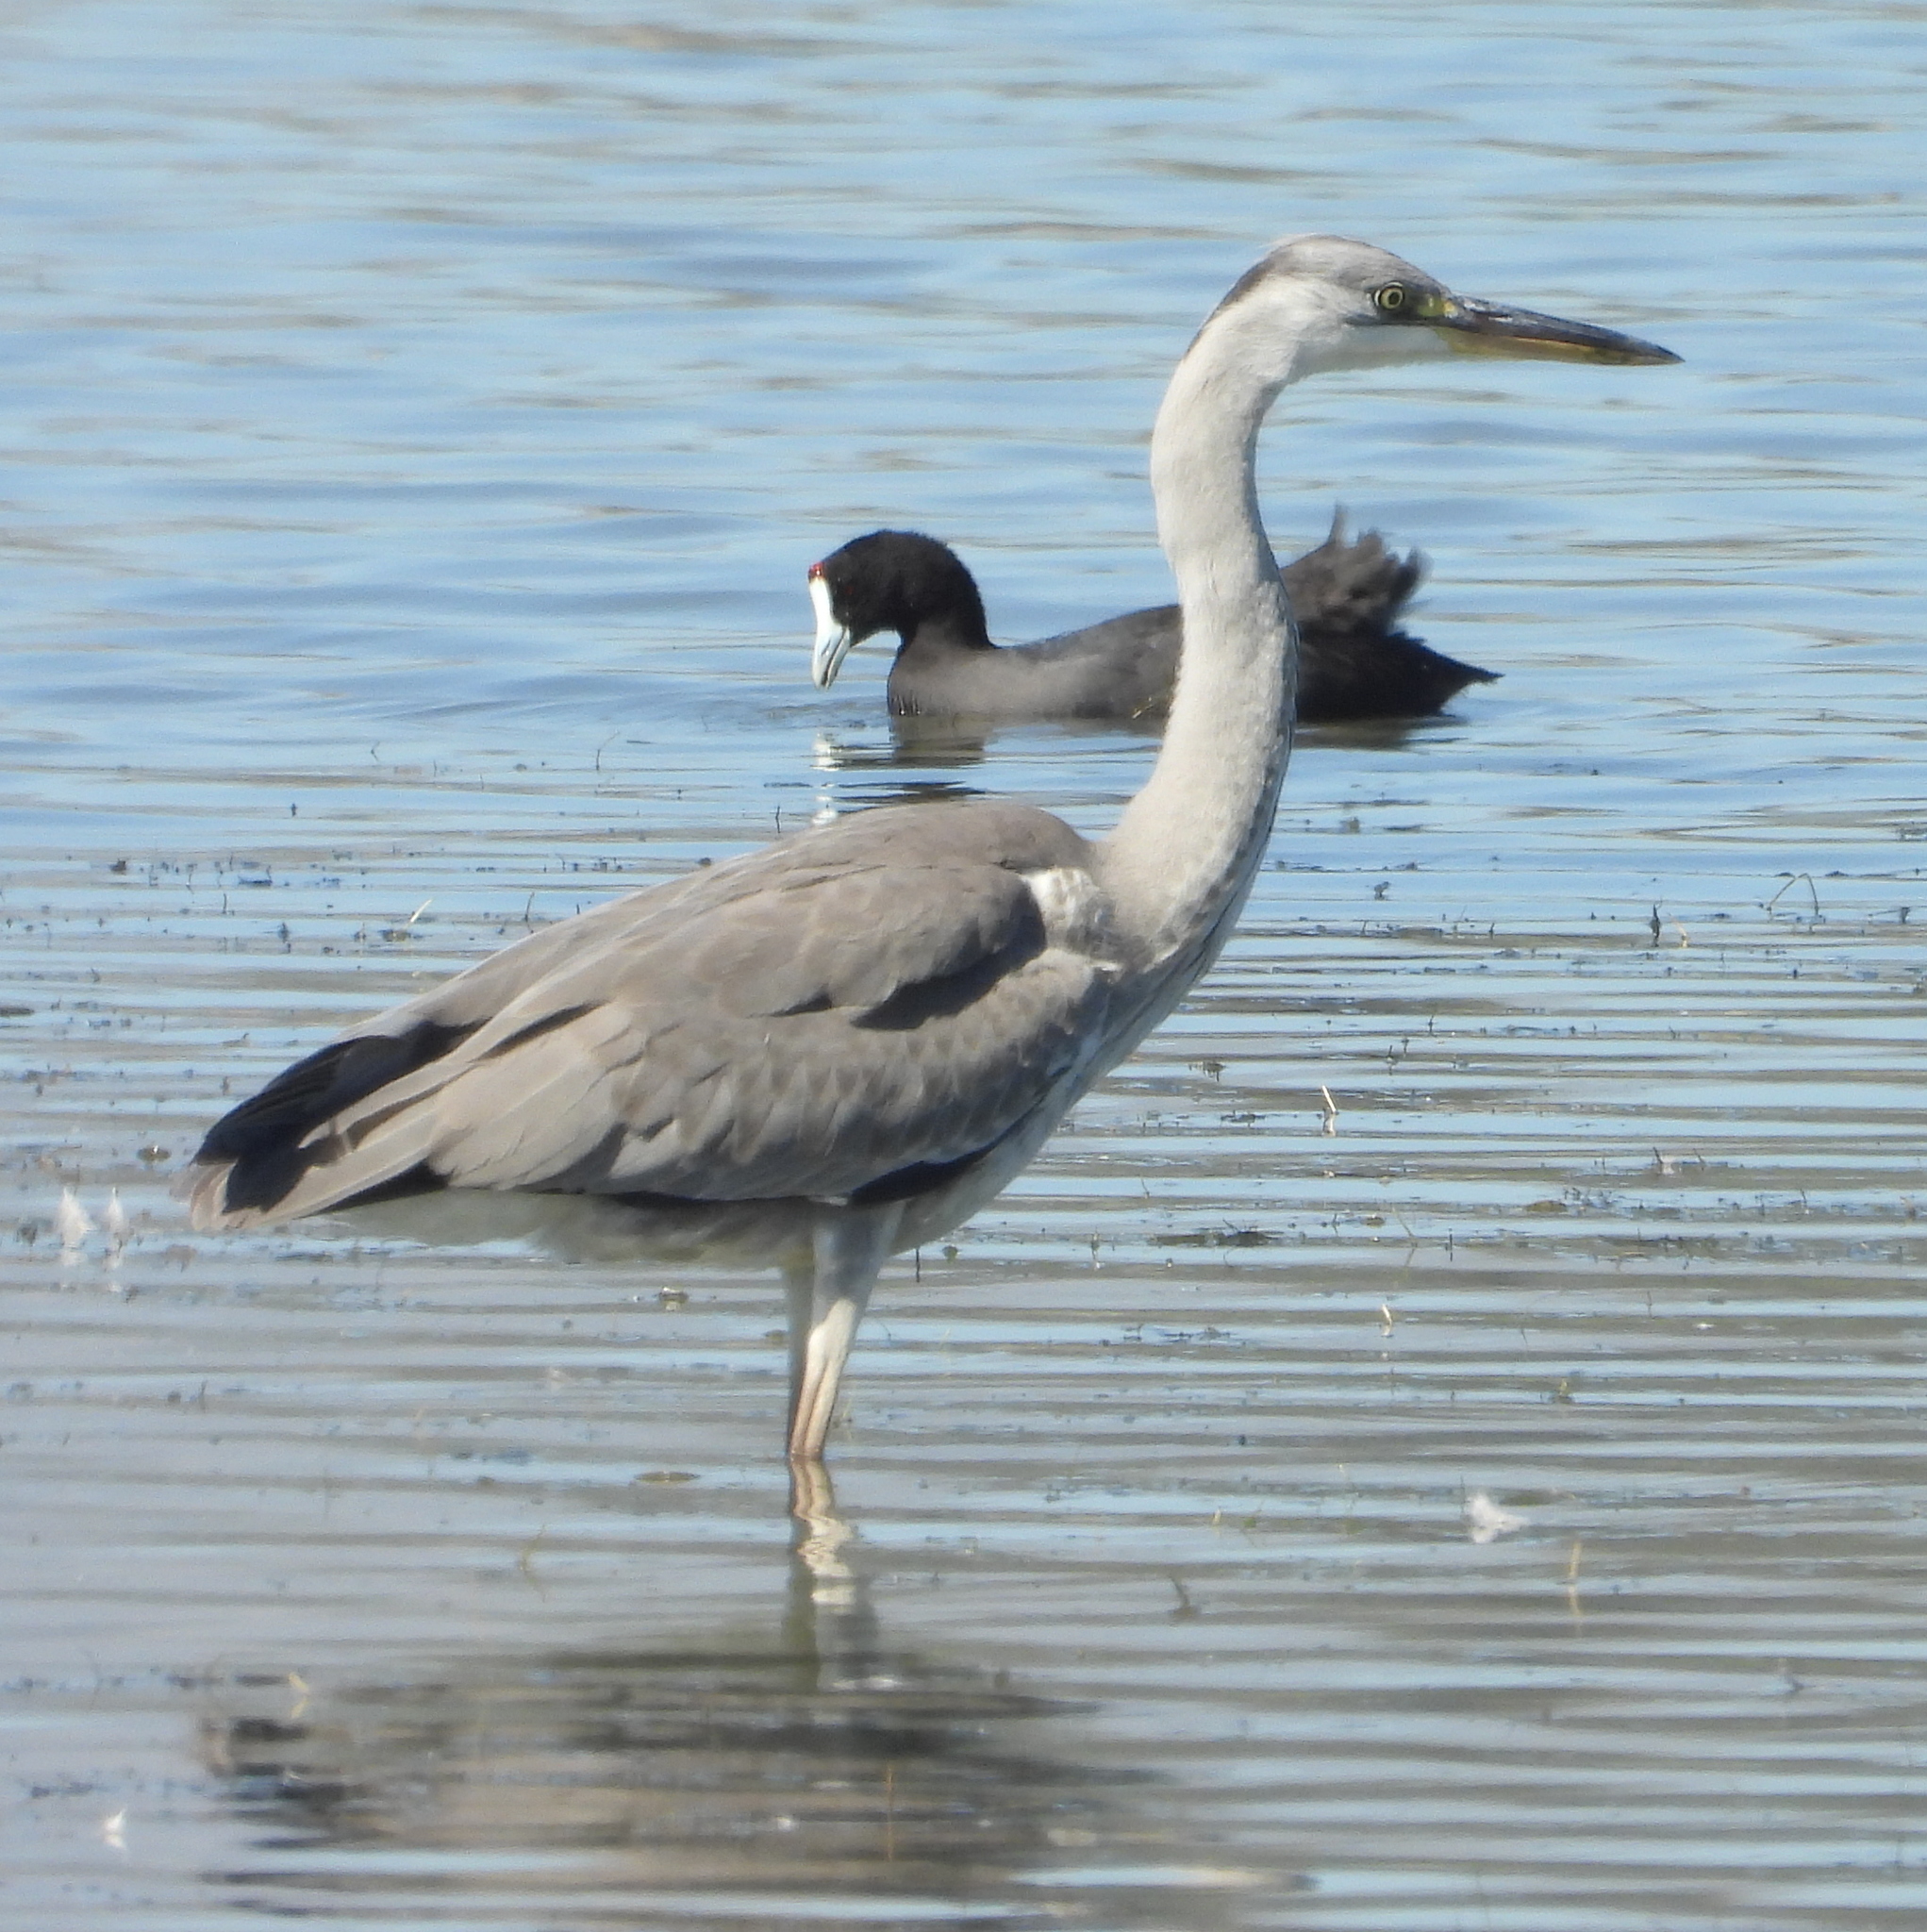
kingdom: Animalia
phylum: Chordata
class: Aves
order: Pelecaniformes
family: Ardeidae
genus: Ardea
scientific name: Ardea cinerea
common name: Grey heron
